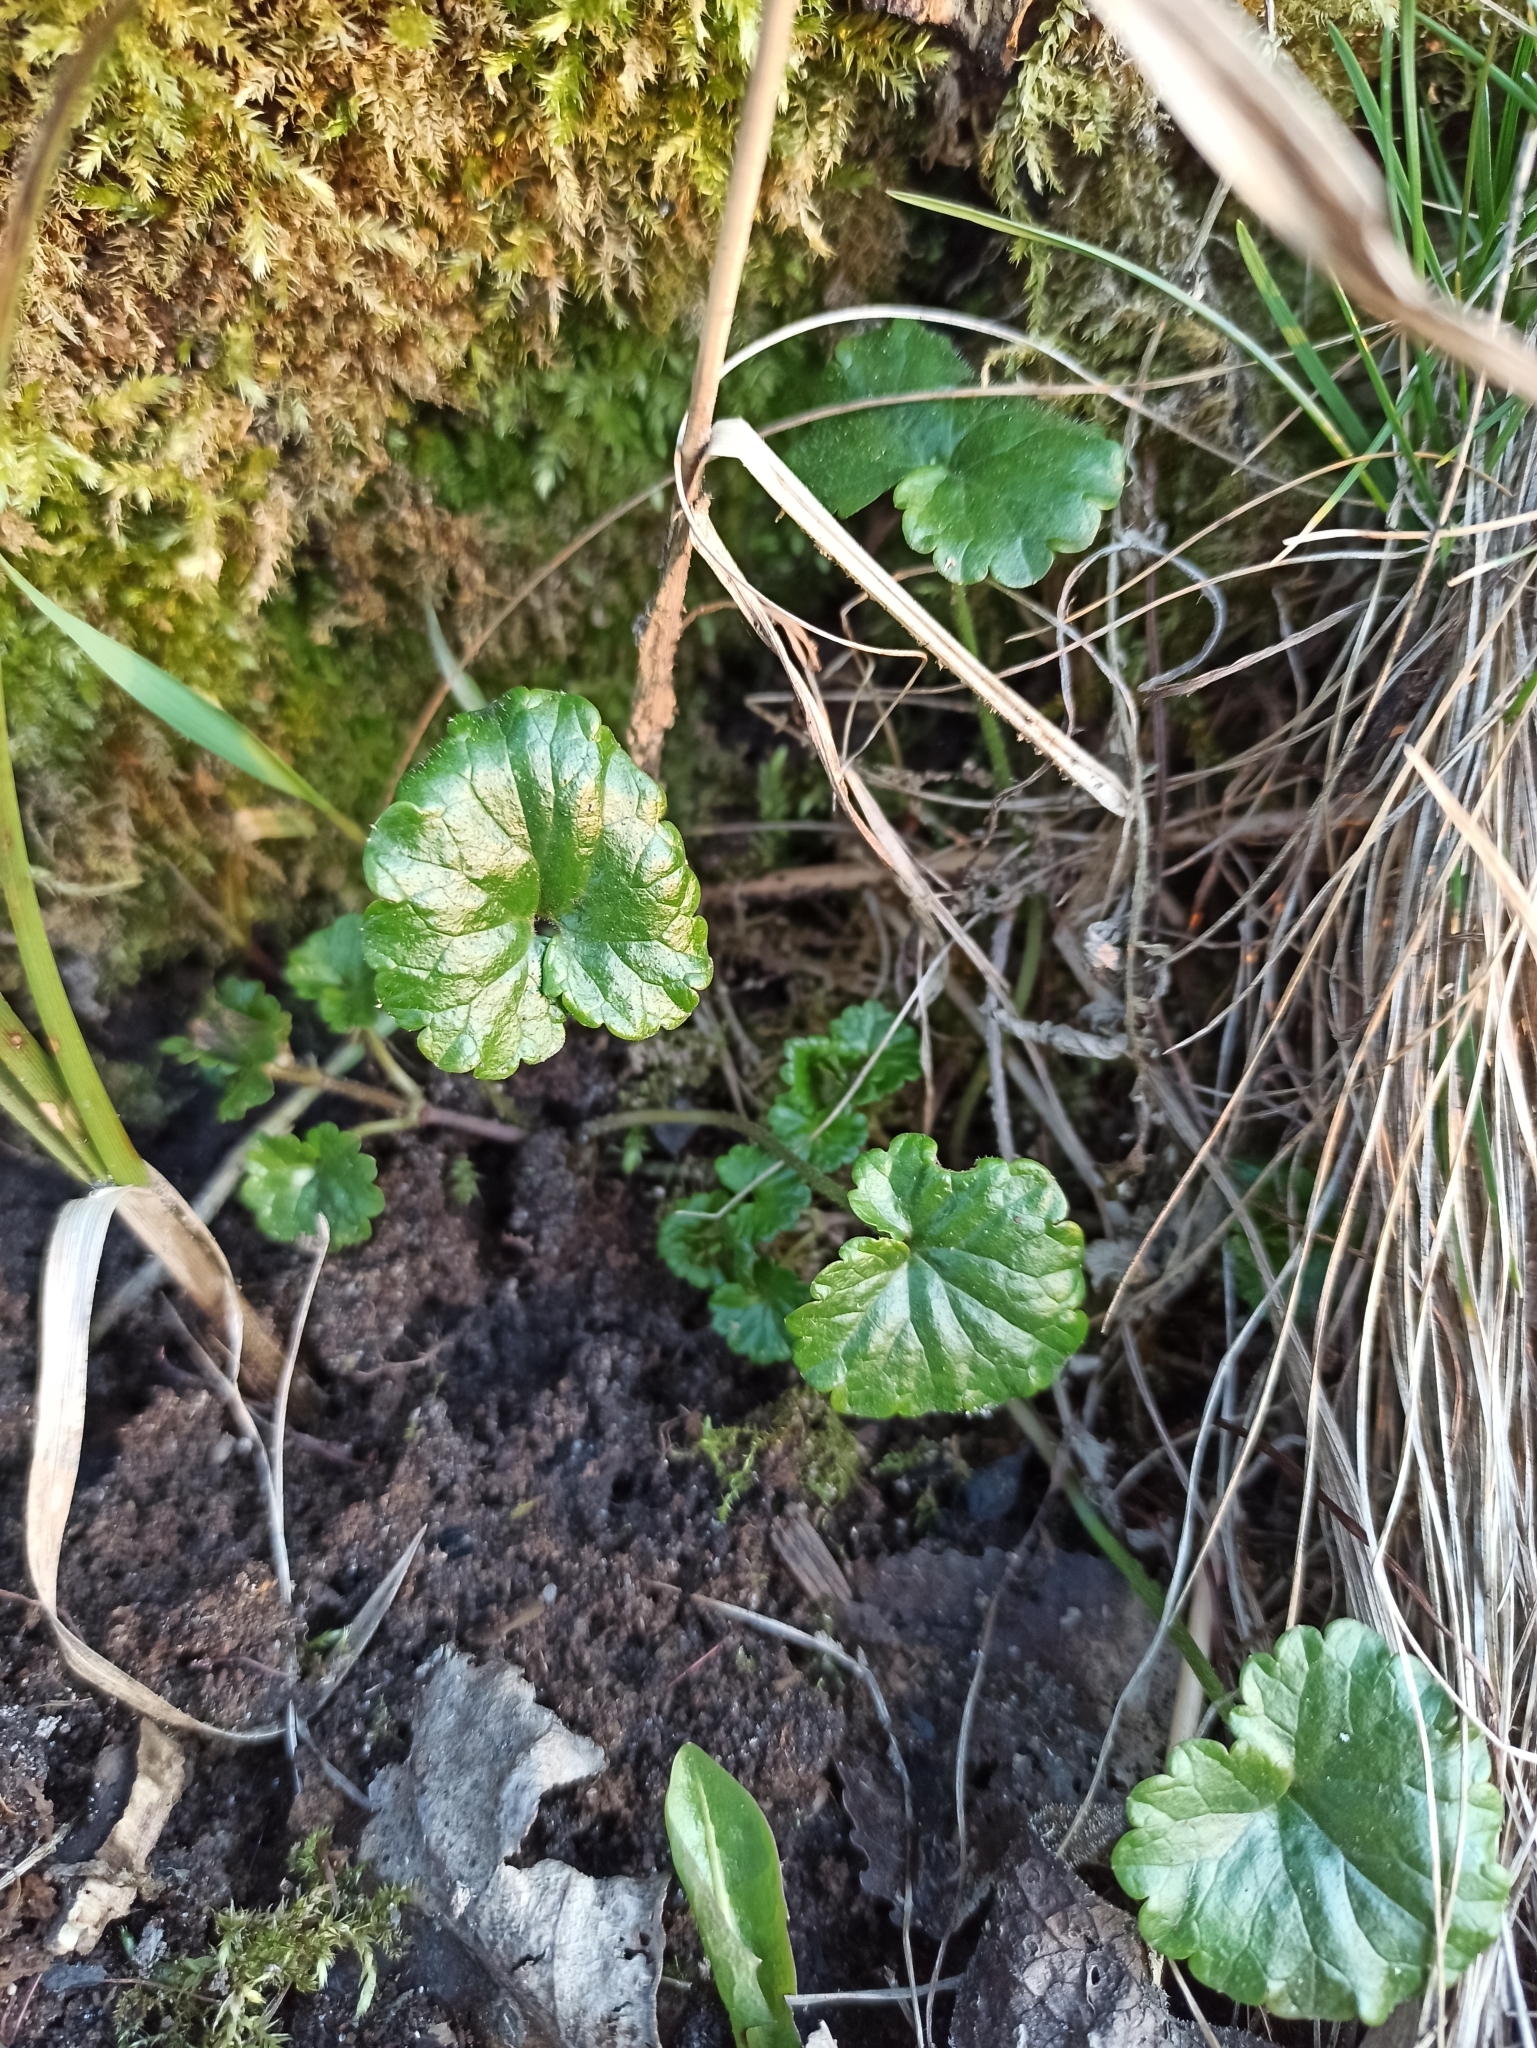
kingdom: Plantae
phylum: Tracheophyta
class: Magnoliopsida
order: Lamiales
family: Lamiaceae
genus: Glechoma
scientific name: Glechoma hederacea
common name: Ground ivy
